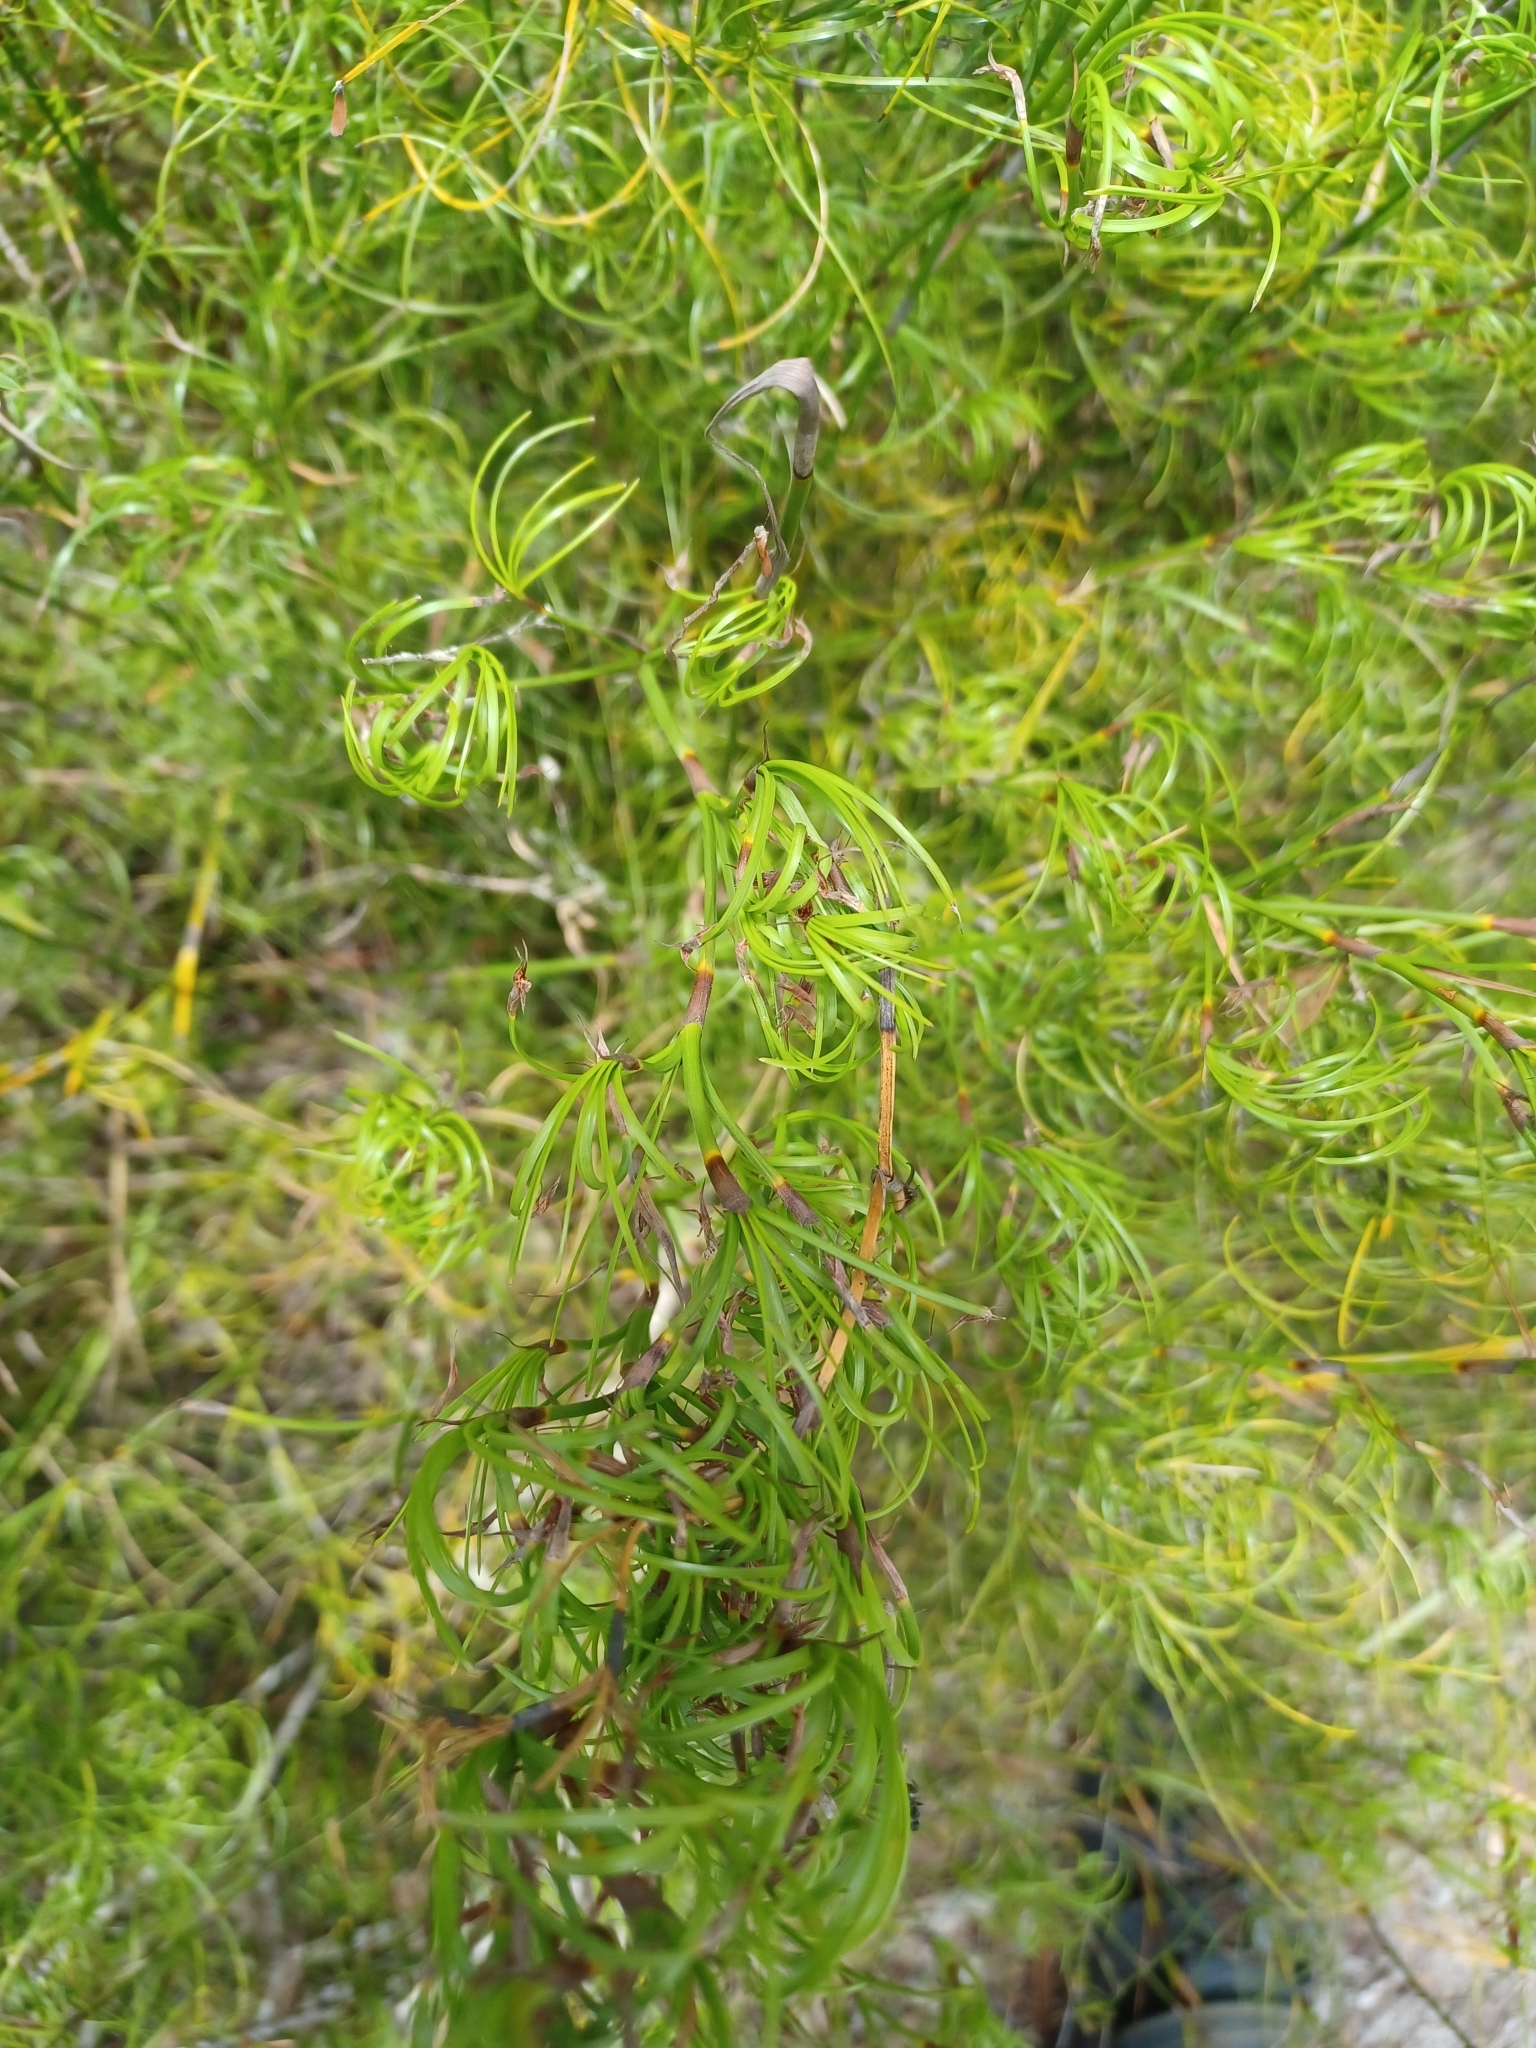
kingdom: Plantae
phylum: Tracheophyta
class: Liliopsida
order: Poales
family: Cyperaceae
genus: Caustis
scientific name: Caustis flexuosa
